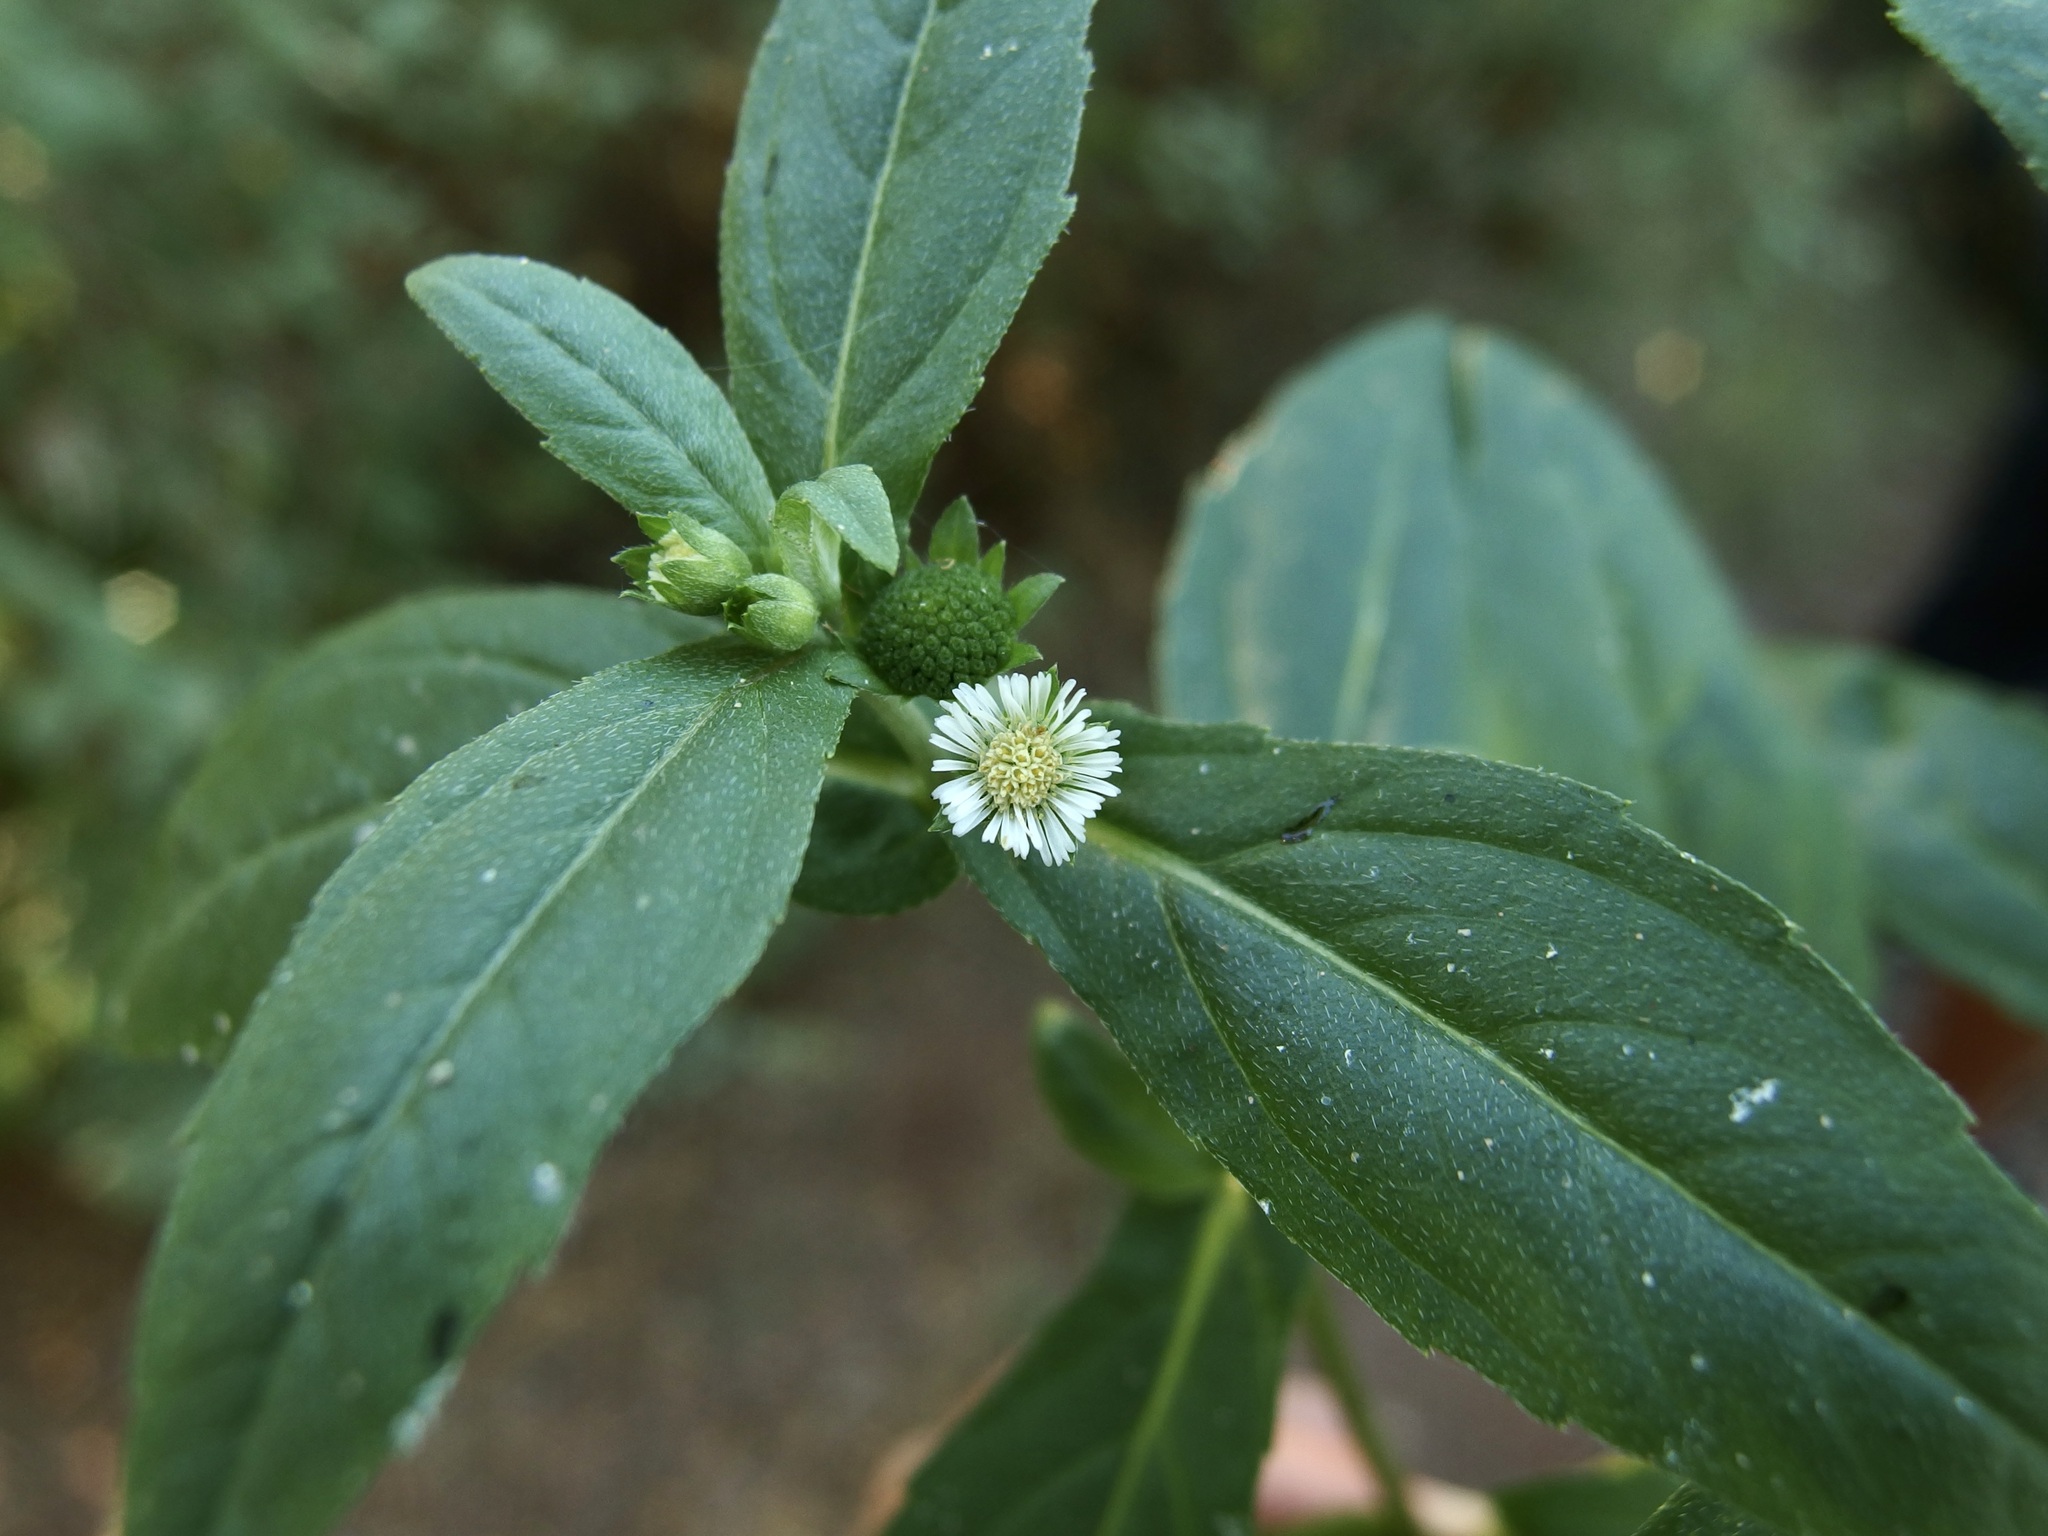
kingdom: Plantae
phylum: Tracheophyta
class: Magnoliopsida
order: Asterales
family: Asteraceae
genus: Eclipta
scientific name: Eclipta prostrata
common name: False daisy
